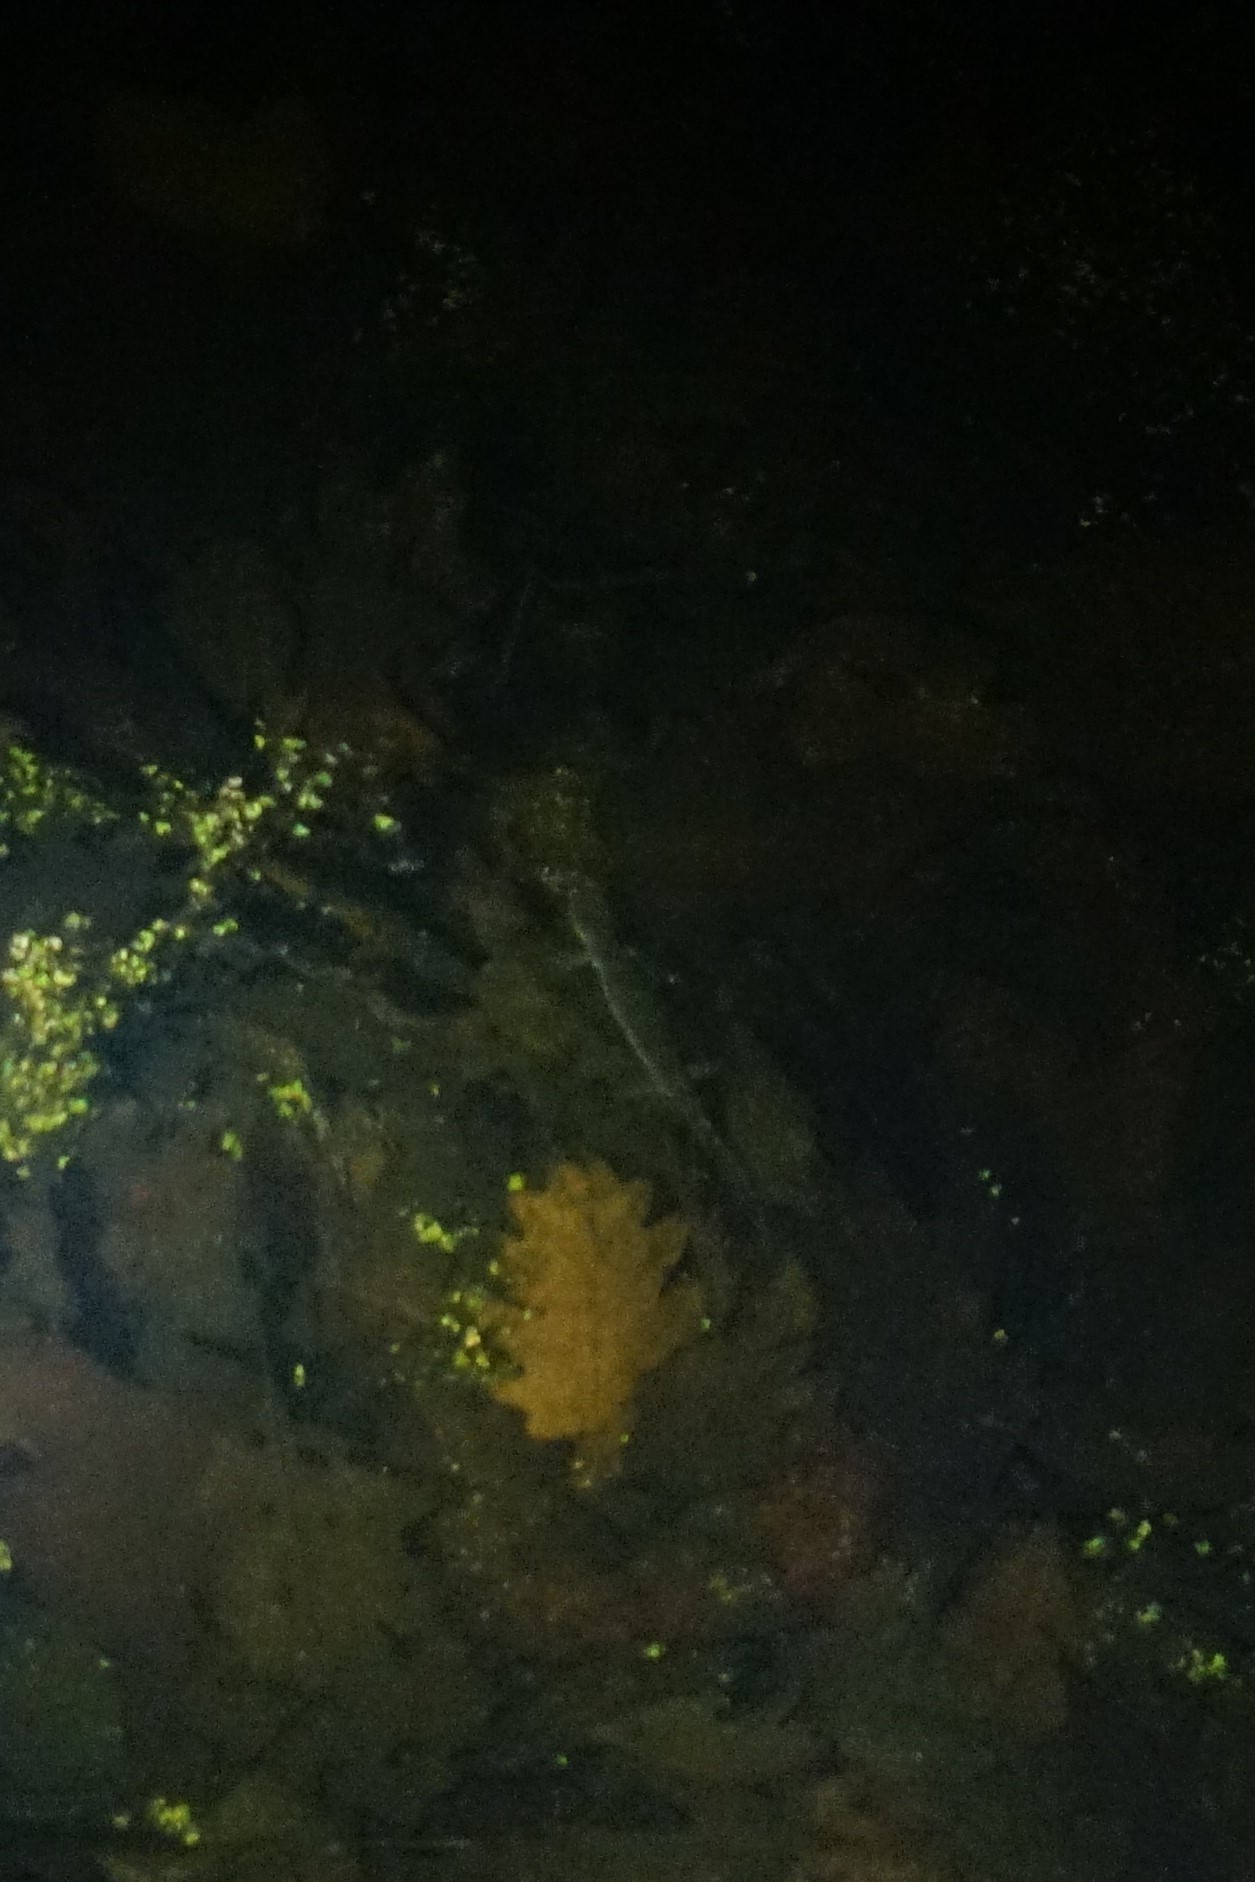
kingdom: Animalia
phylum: Chordata
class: Amphibia
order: Caudata
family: Ambystomatidae
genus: Ambystoma
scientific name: Ambystoma laterale
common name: Blue-spotted salamander
